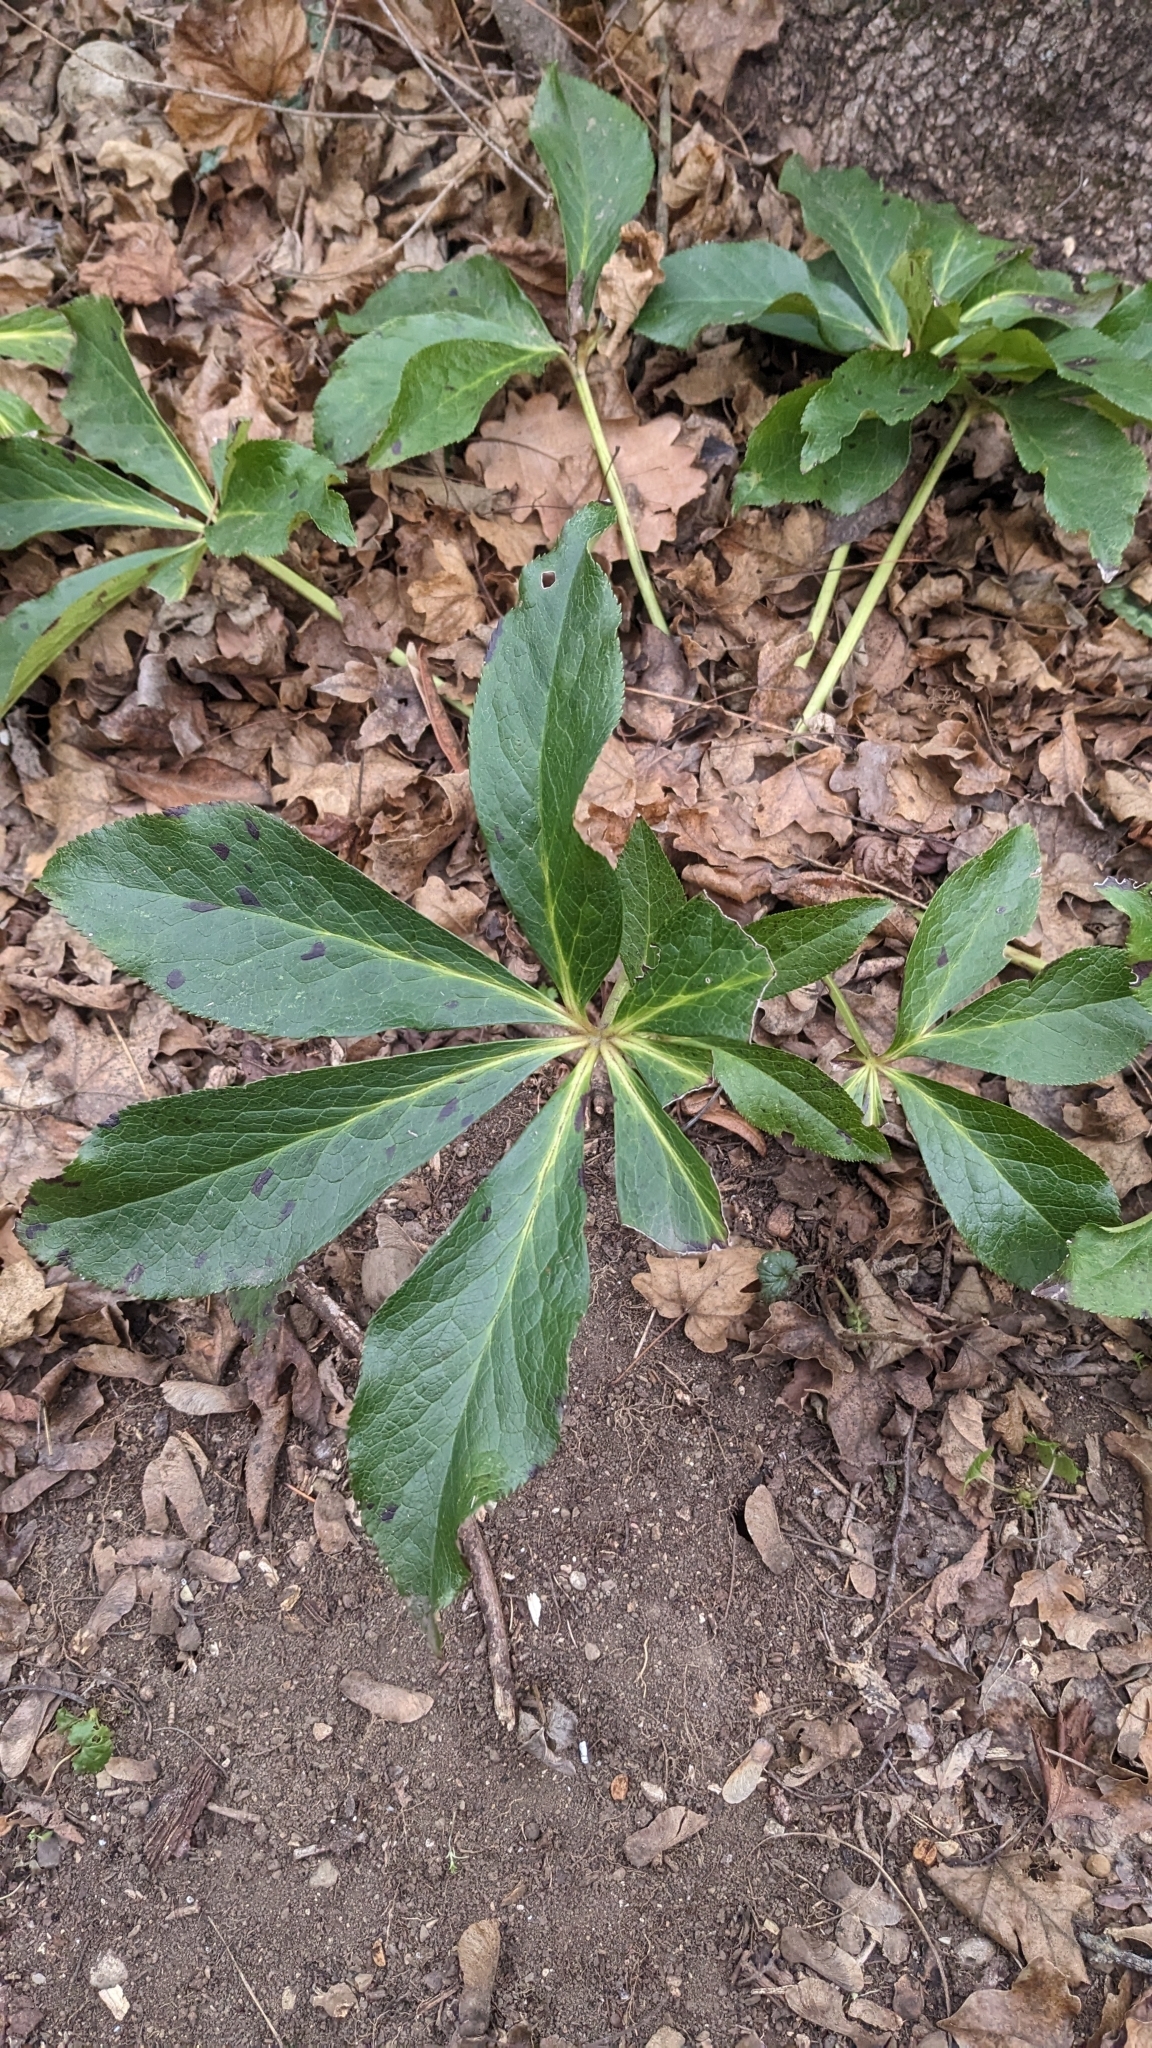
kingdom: Plantae
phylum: Tracheophyta
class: Magnoliopsida
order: Ranunculales
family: Ranunculaceae
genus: Helleborus
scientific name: Helleborus orientalis
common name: Lenten-rose
